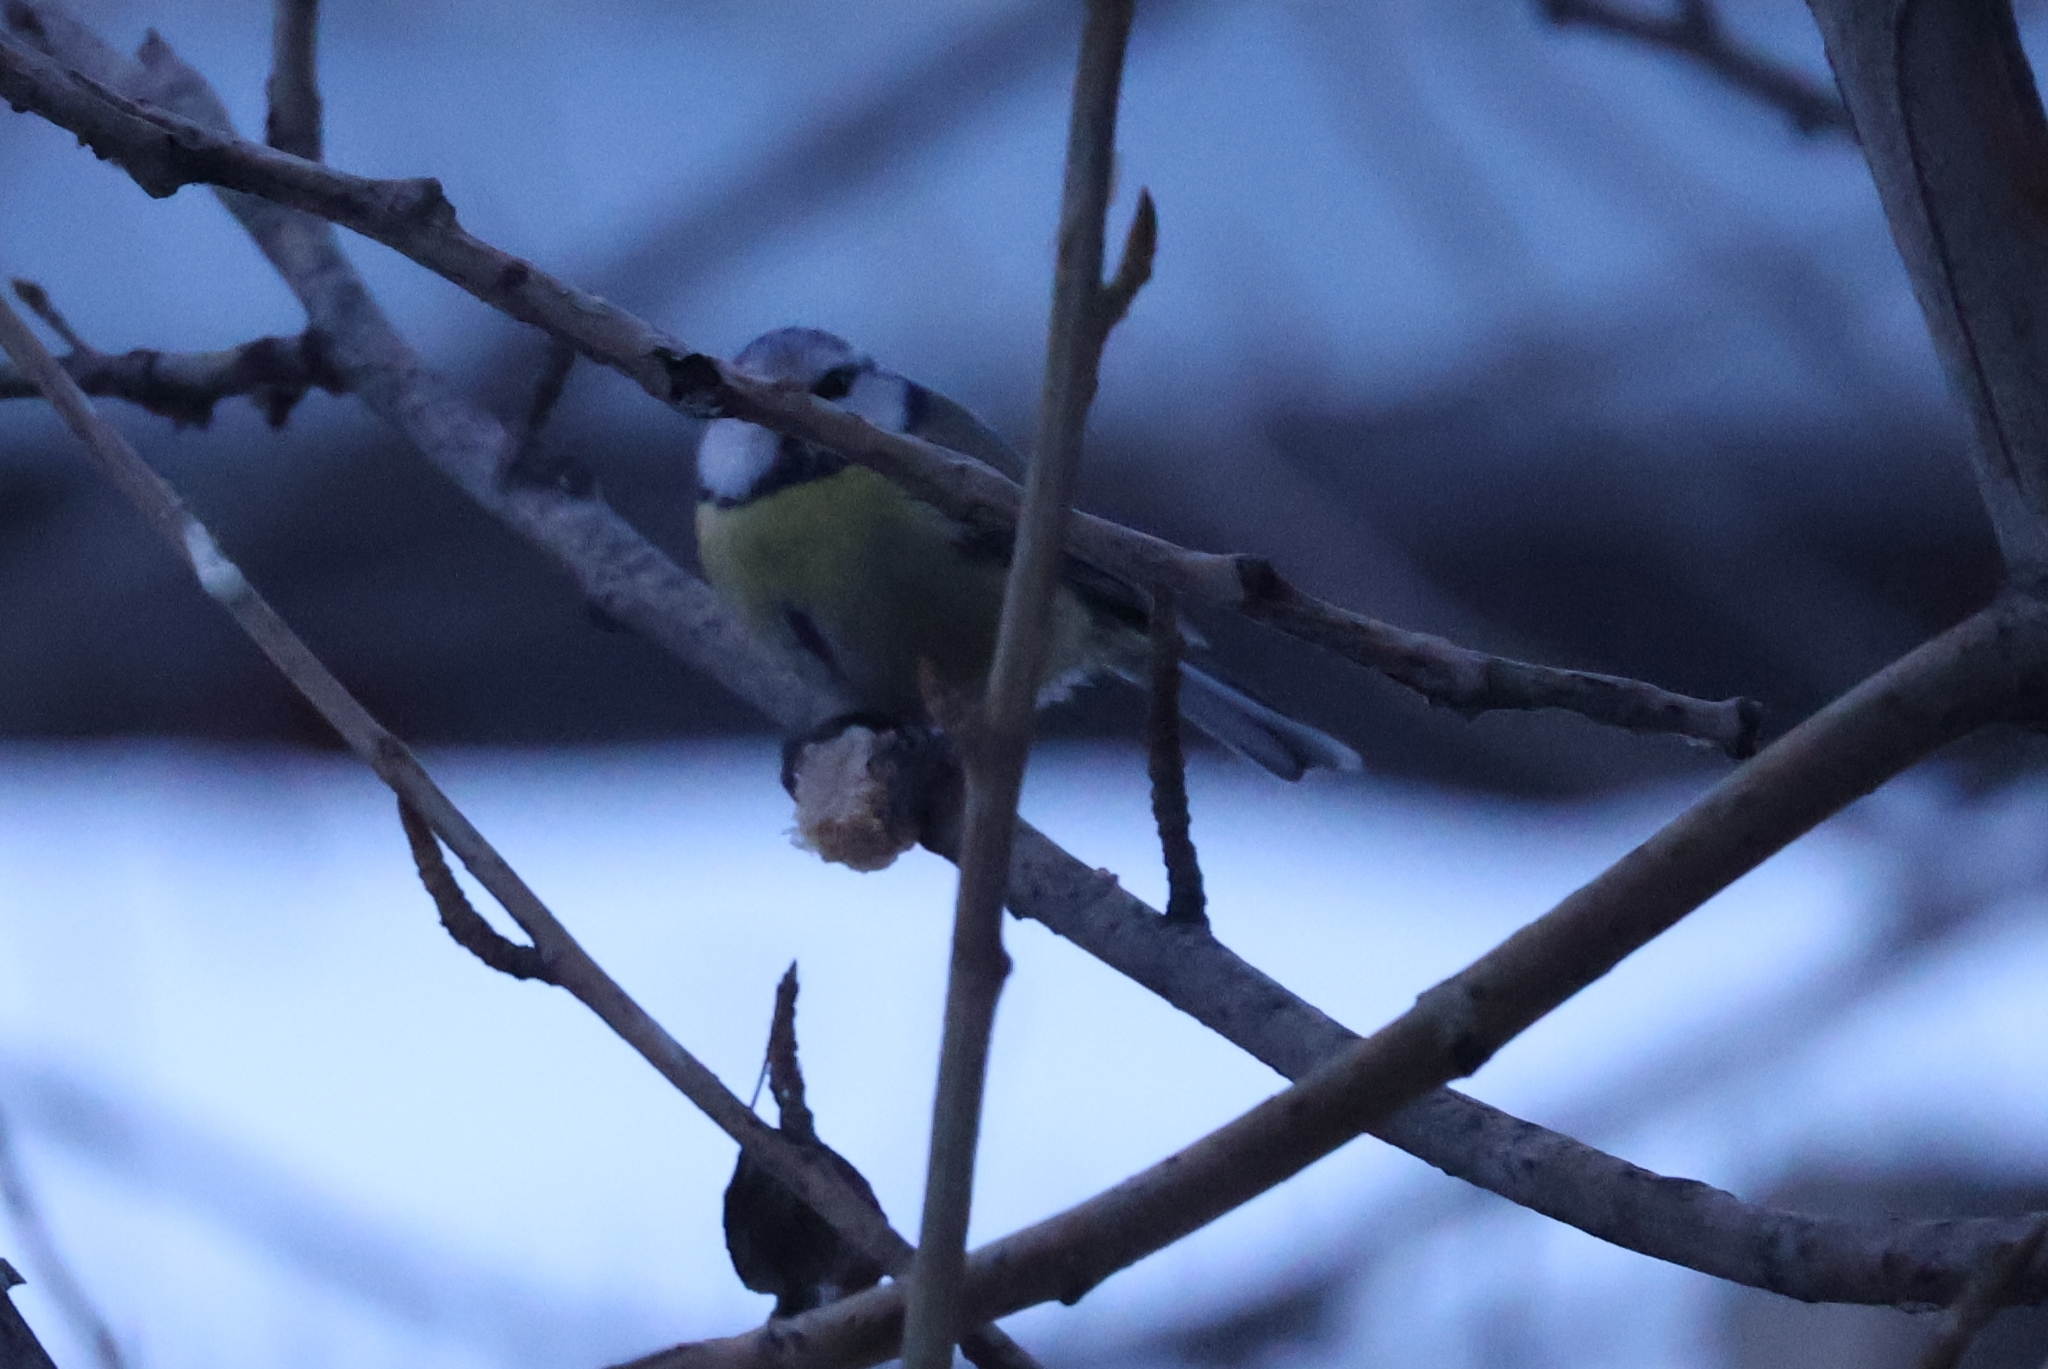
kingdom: Animalia
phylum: Chordata
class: Aves
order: Passeriformes
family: Paridae
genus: Cyanistes
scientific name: Cyanistes caeruleus
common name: Eurasian blue tit
